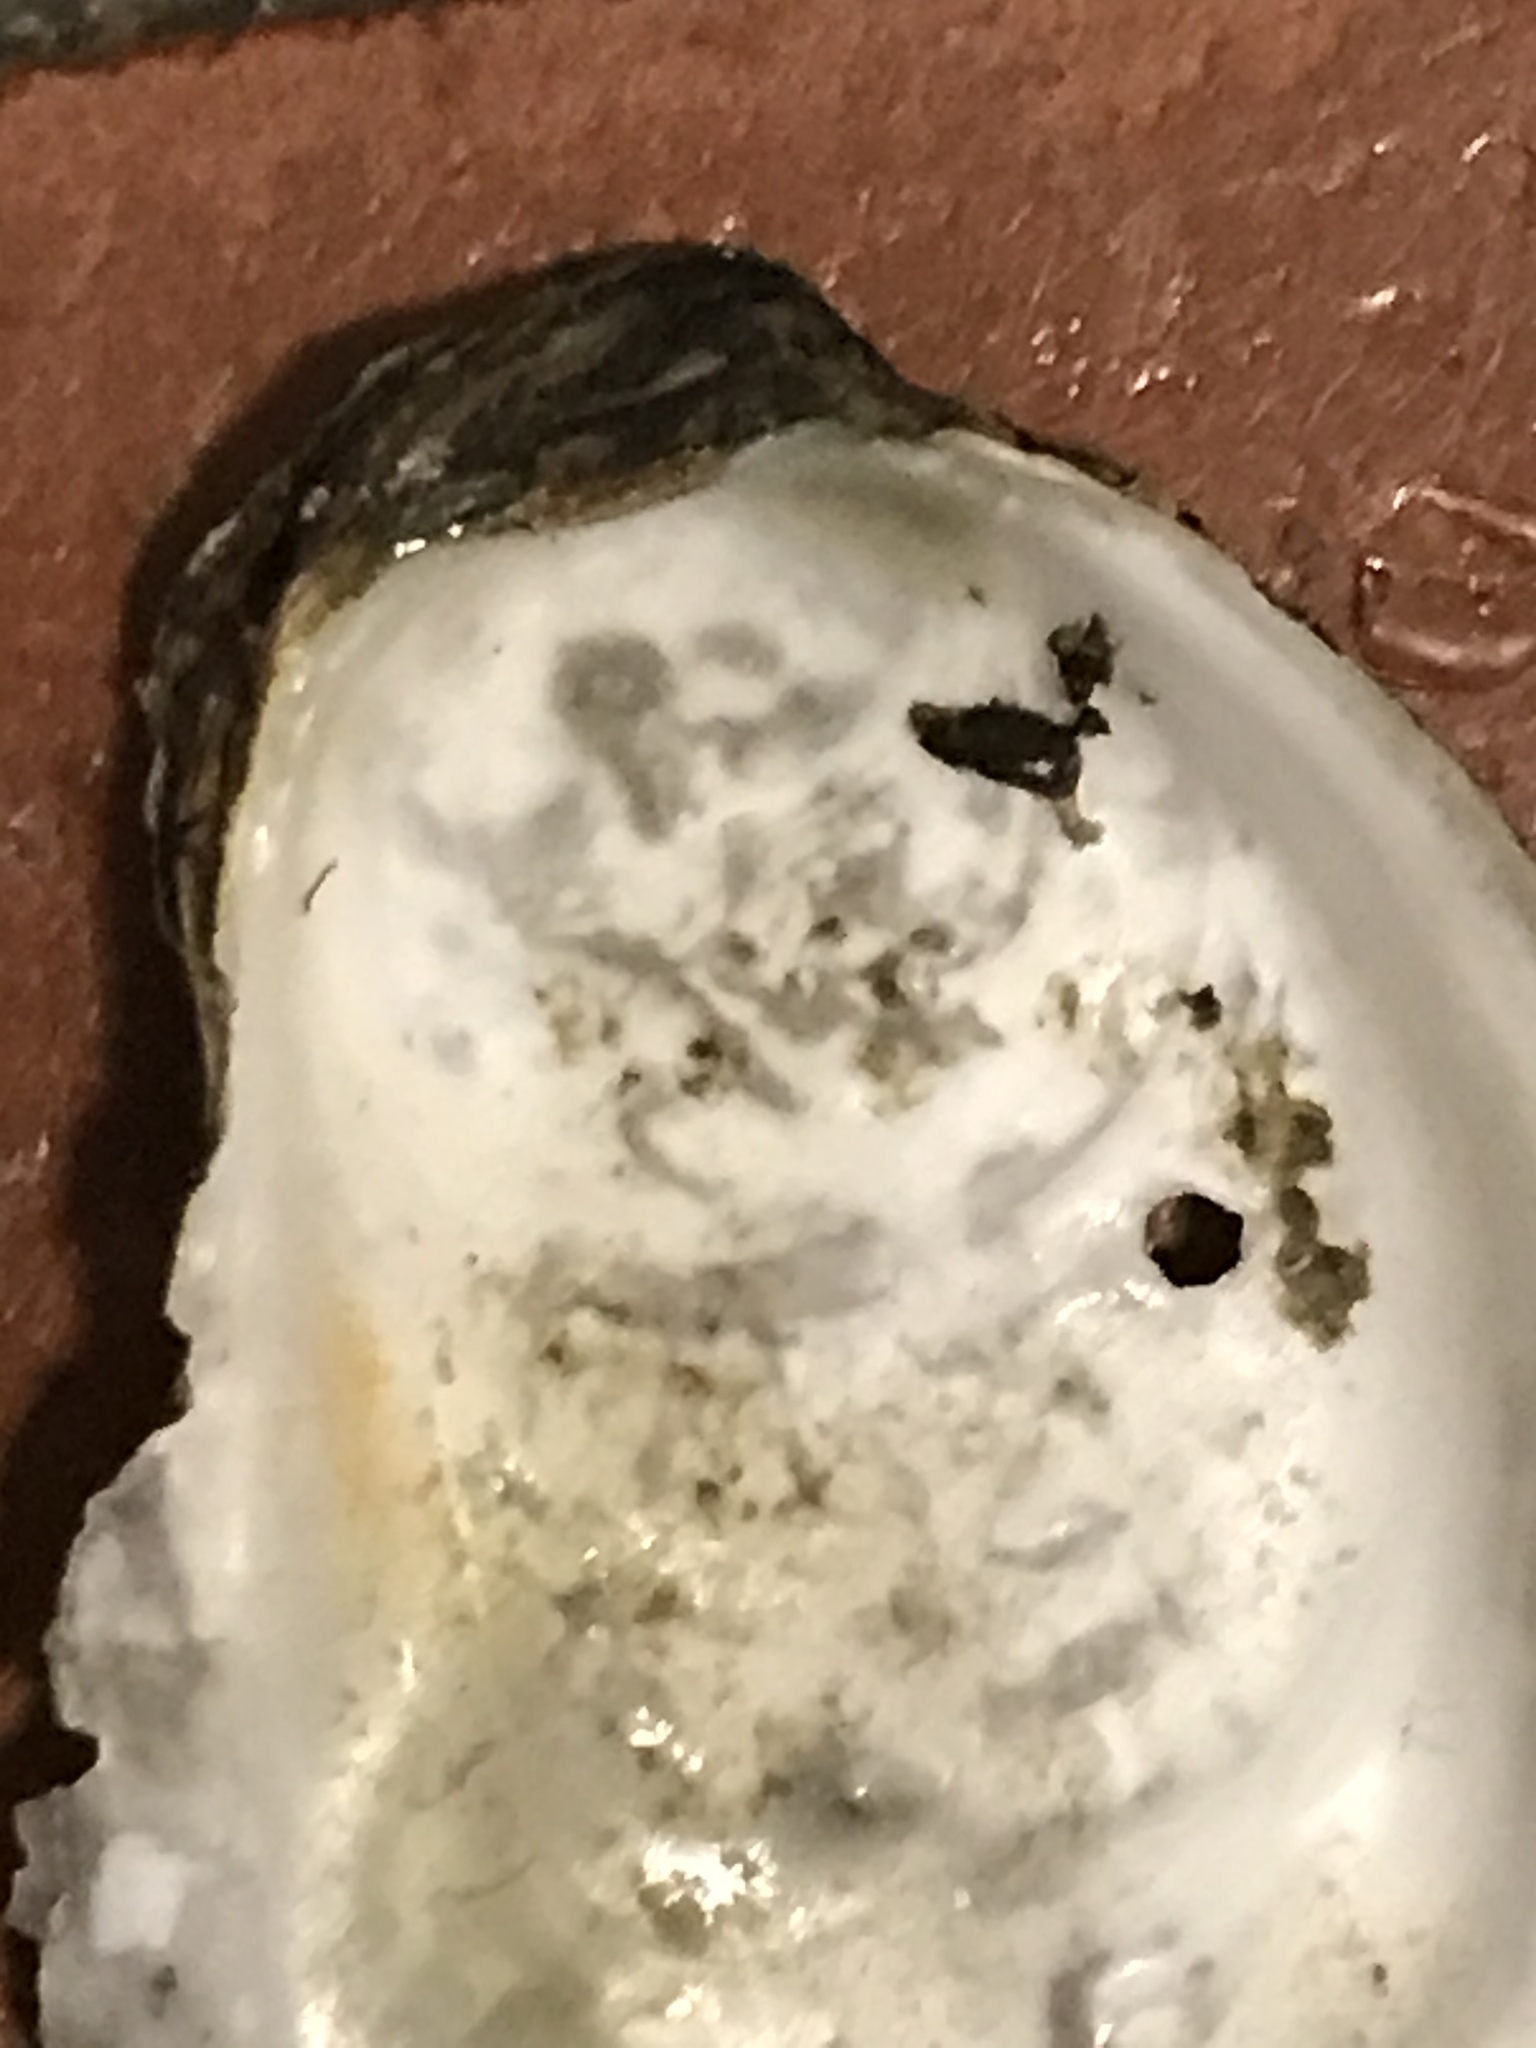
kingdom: Animalia
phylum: Mollusca
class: Bivalvia
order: Ostreida
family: Ostreidae
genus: Ostrea
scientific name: Ostrea lurida
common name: Olympia flat oyster
